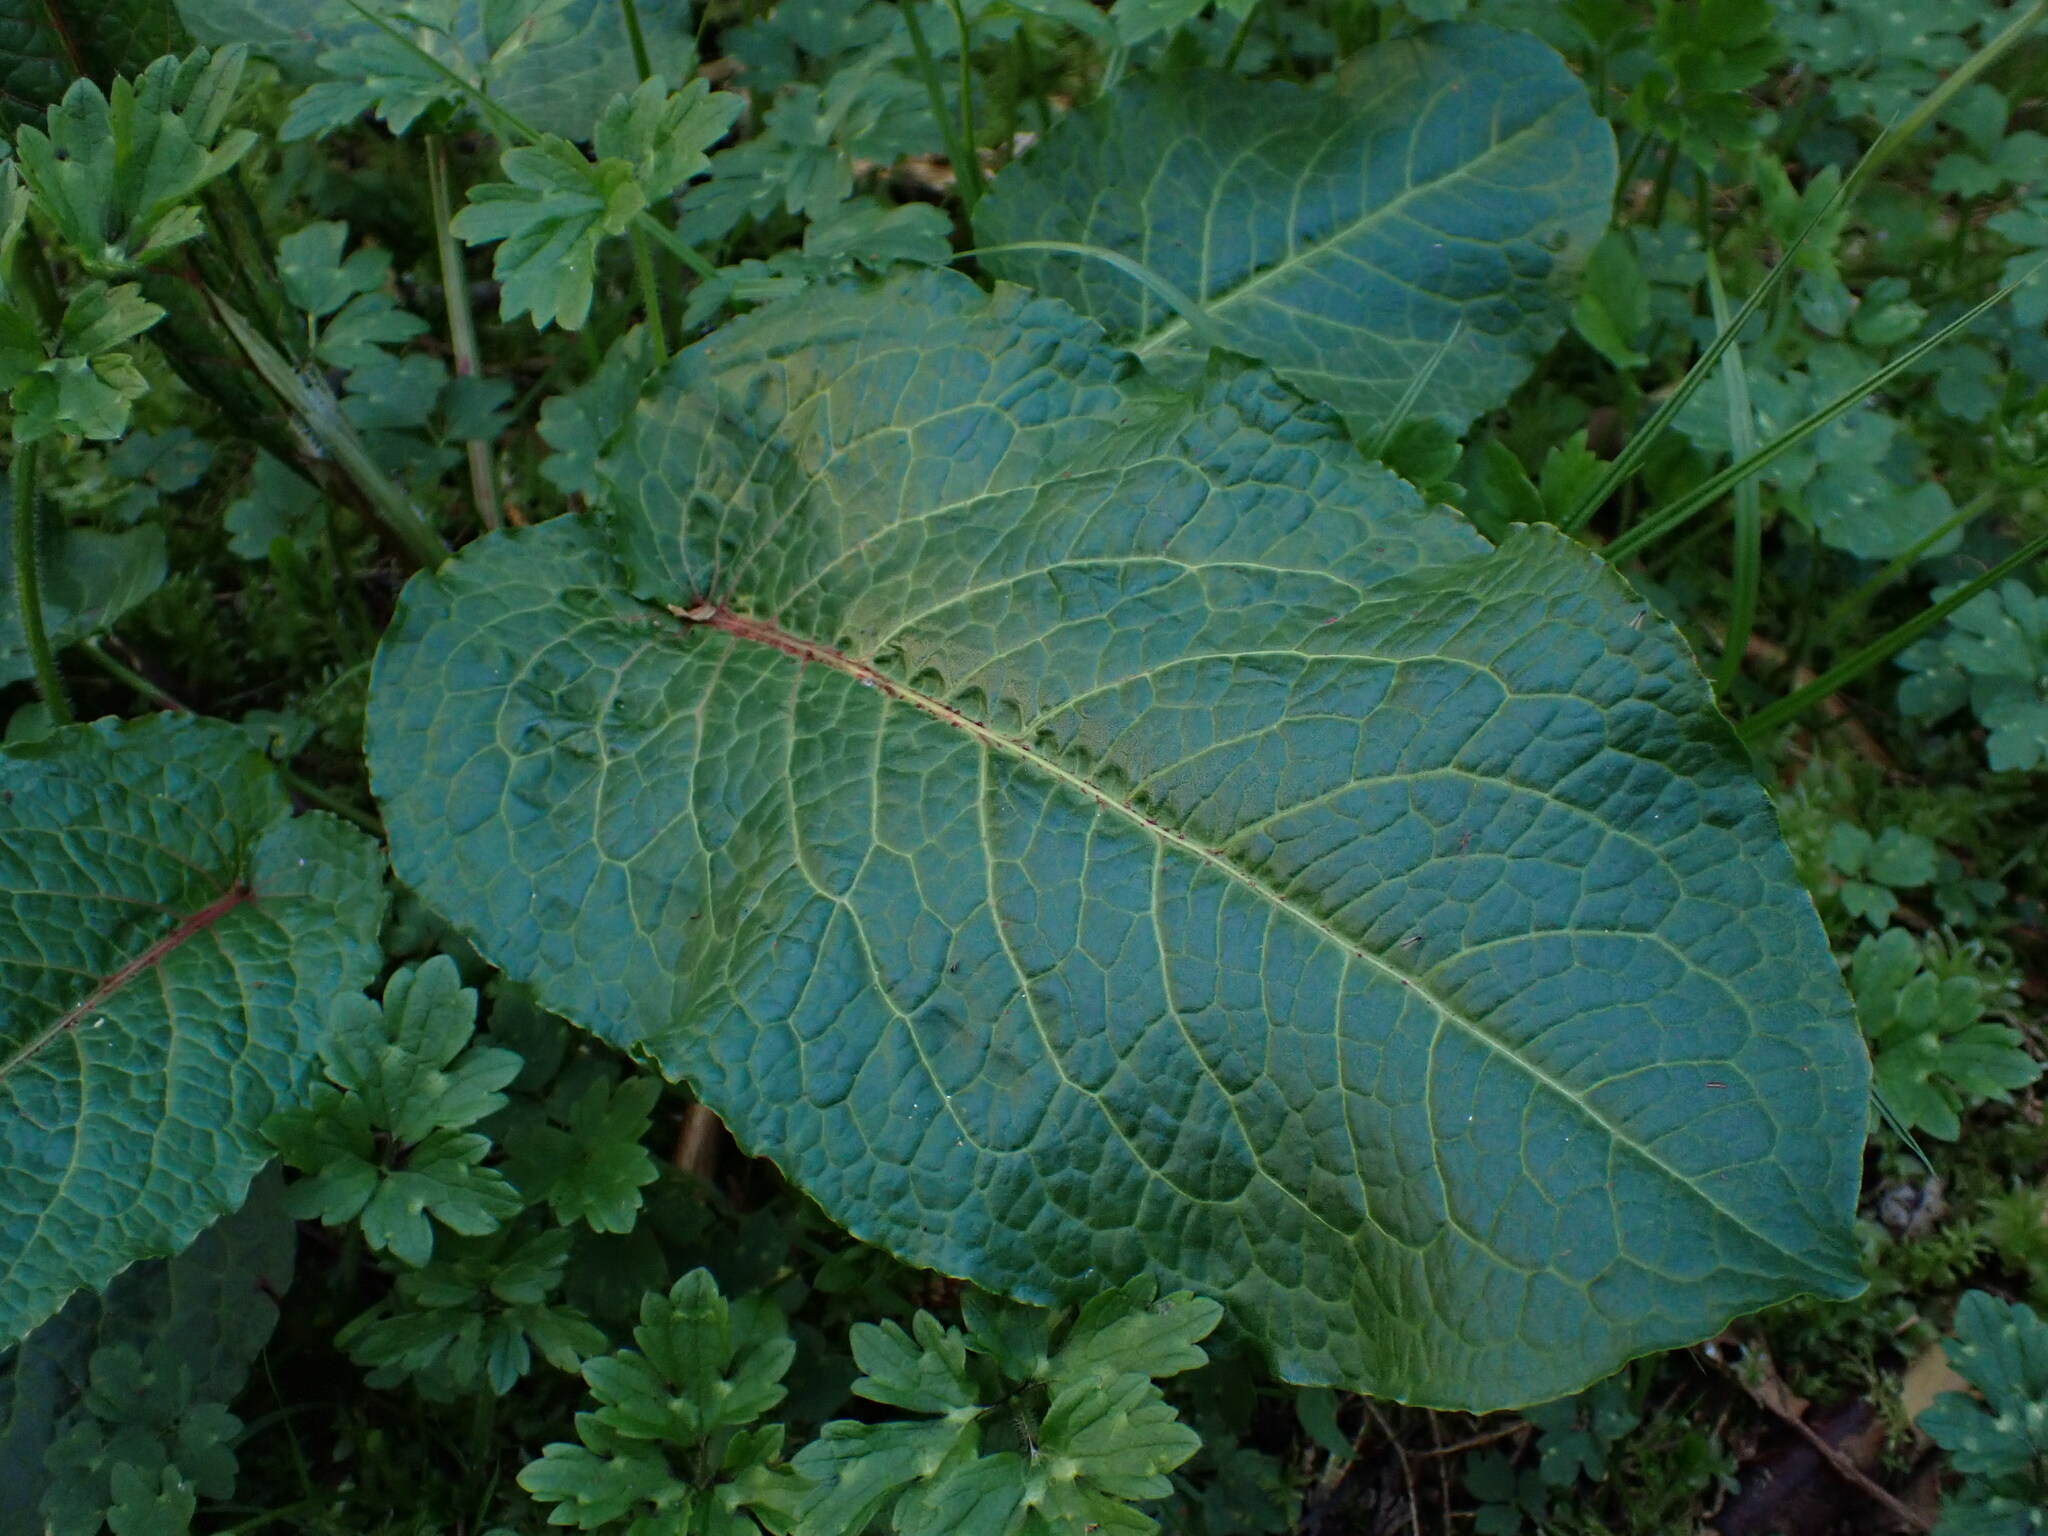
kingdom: Plantae
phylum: Tracheophyta
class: Magnoliopsida
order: Caryophyllales
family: Polygonaceae
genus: Rumex
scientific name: Rumex obtusifolius
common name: Bitter dock
